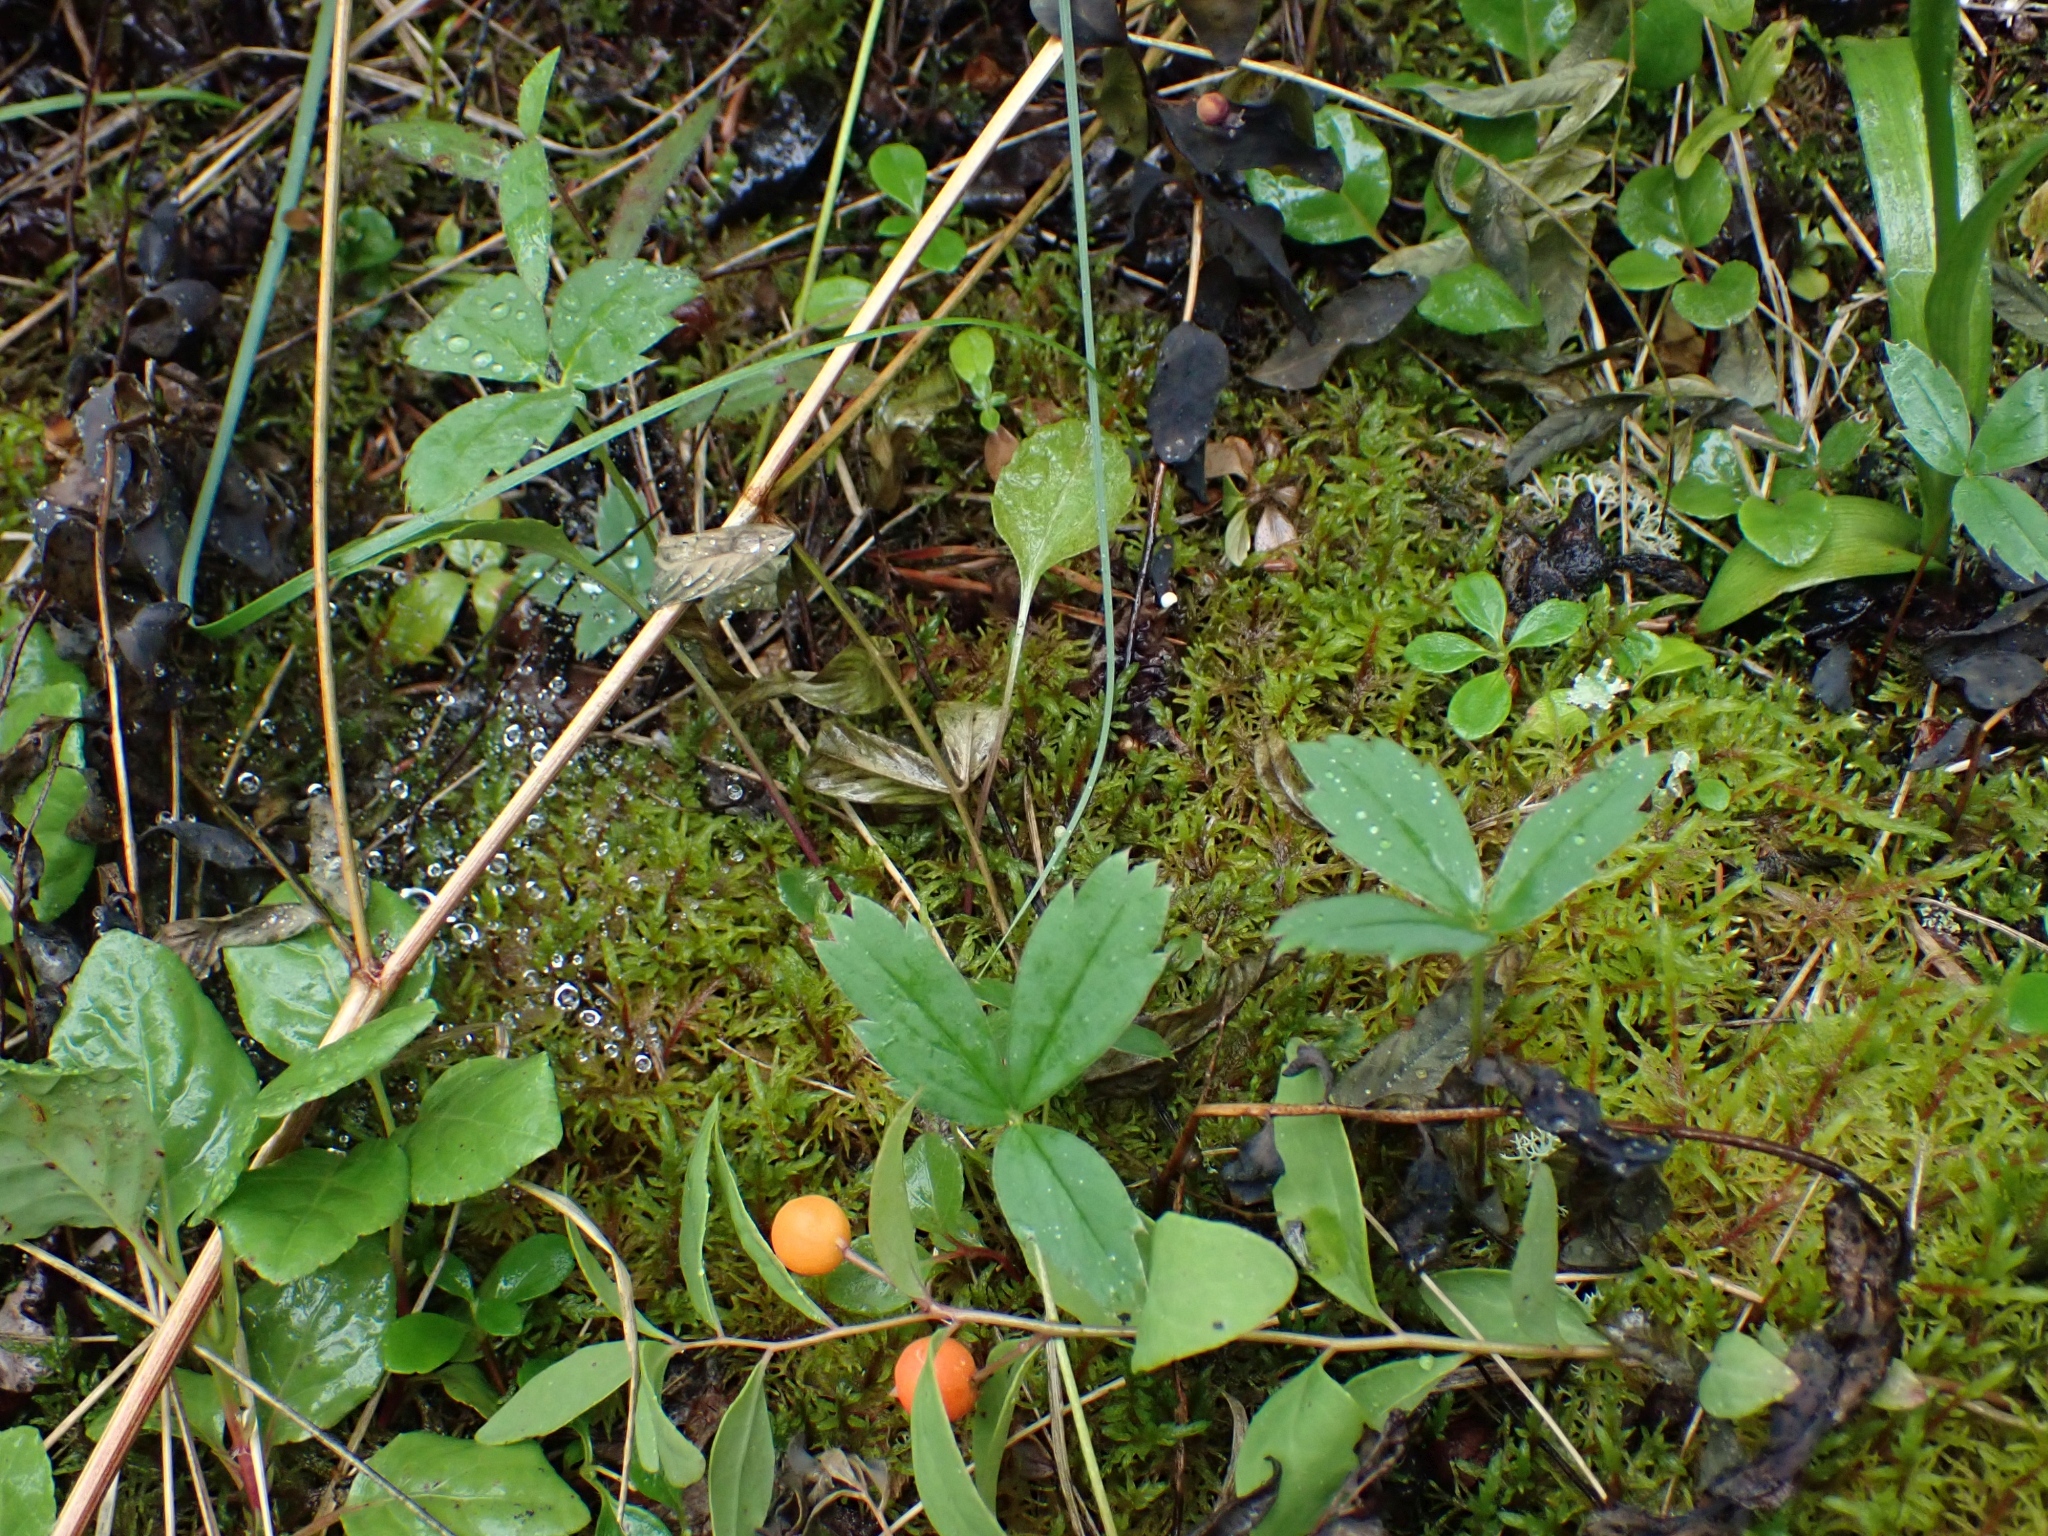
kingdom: Plantae
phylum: Tracheophyta
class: Magnoliopsida
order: Rosales
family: Rosaceae
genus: Fragaria
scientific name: Fragaria virginiana
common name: Thickleaved wild strawberry
